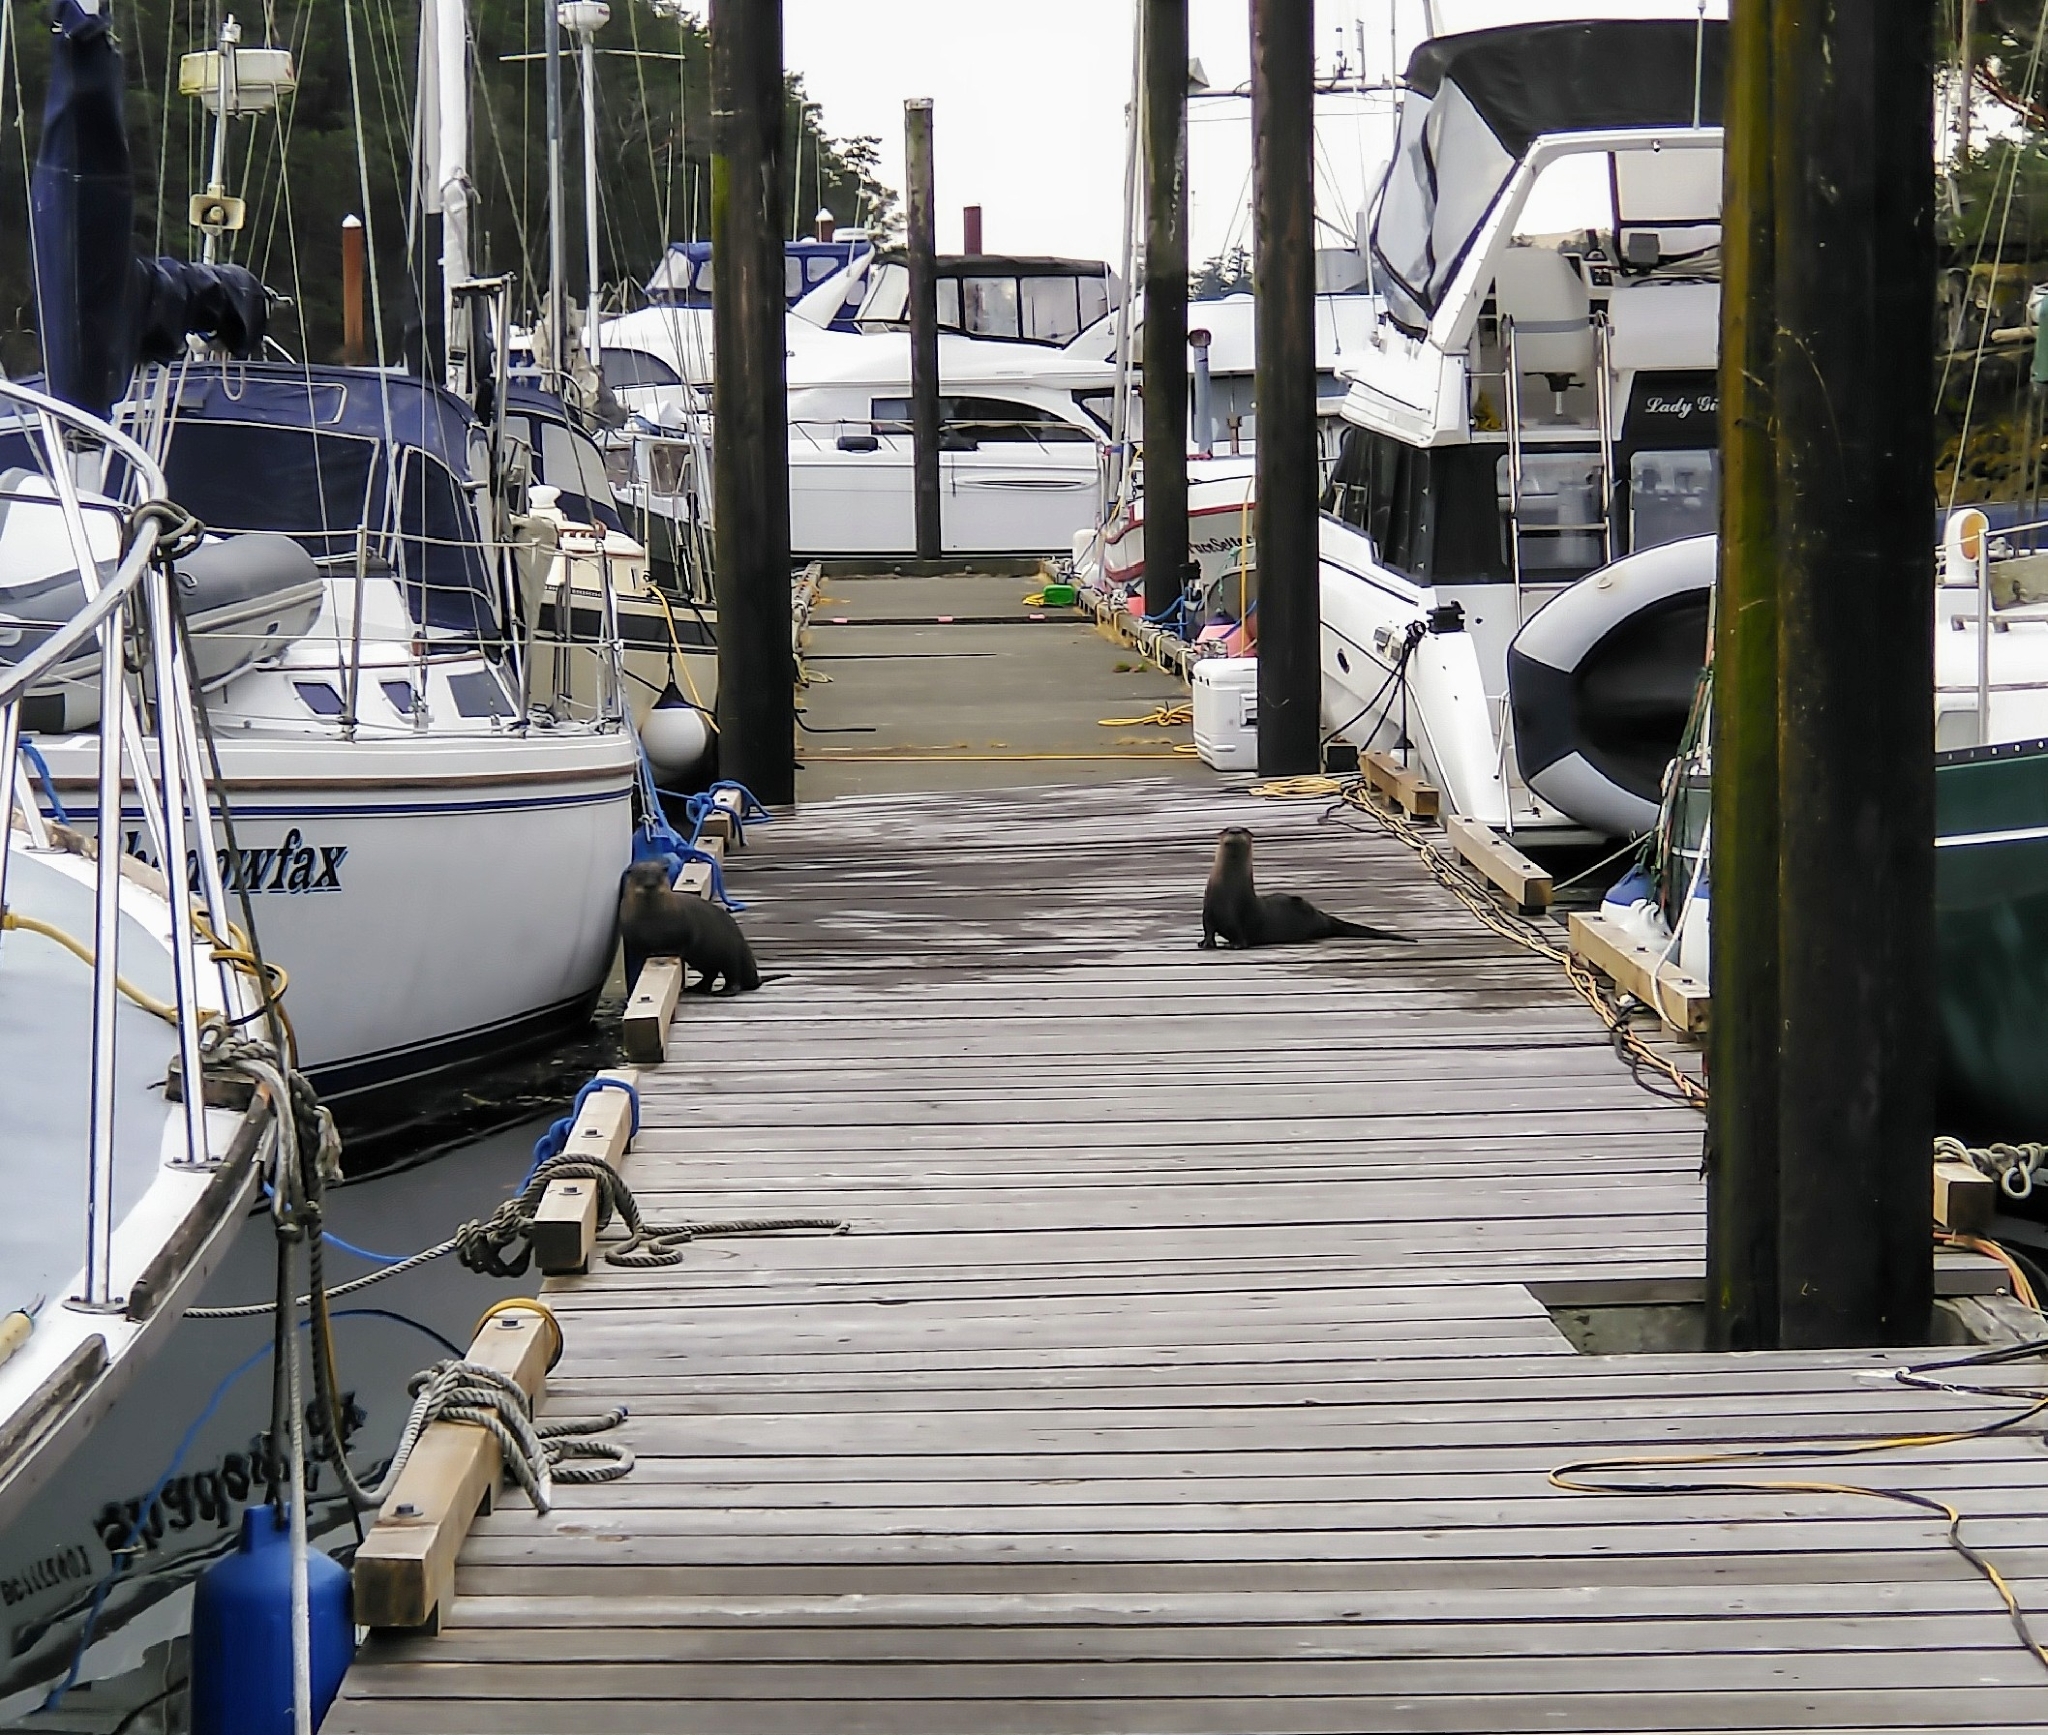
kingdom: Animalia
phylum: Chordata
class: Mammalia
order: Carnivora
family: Mustelidae
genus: Lontra
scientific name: Lontra canadensis
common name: North american river otter
